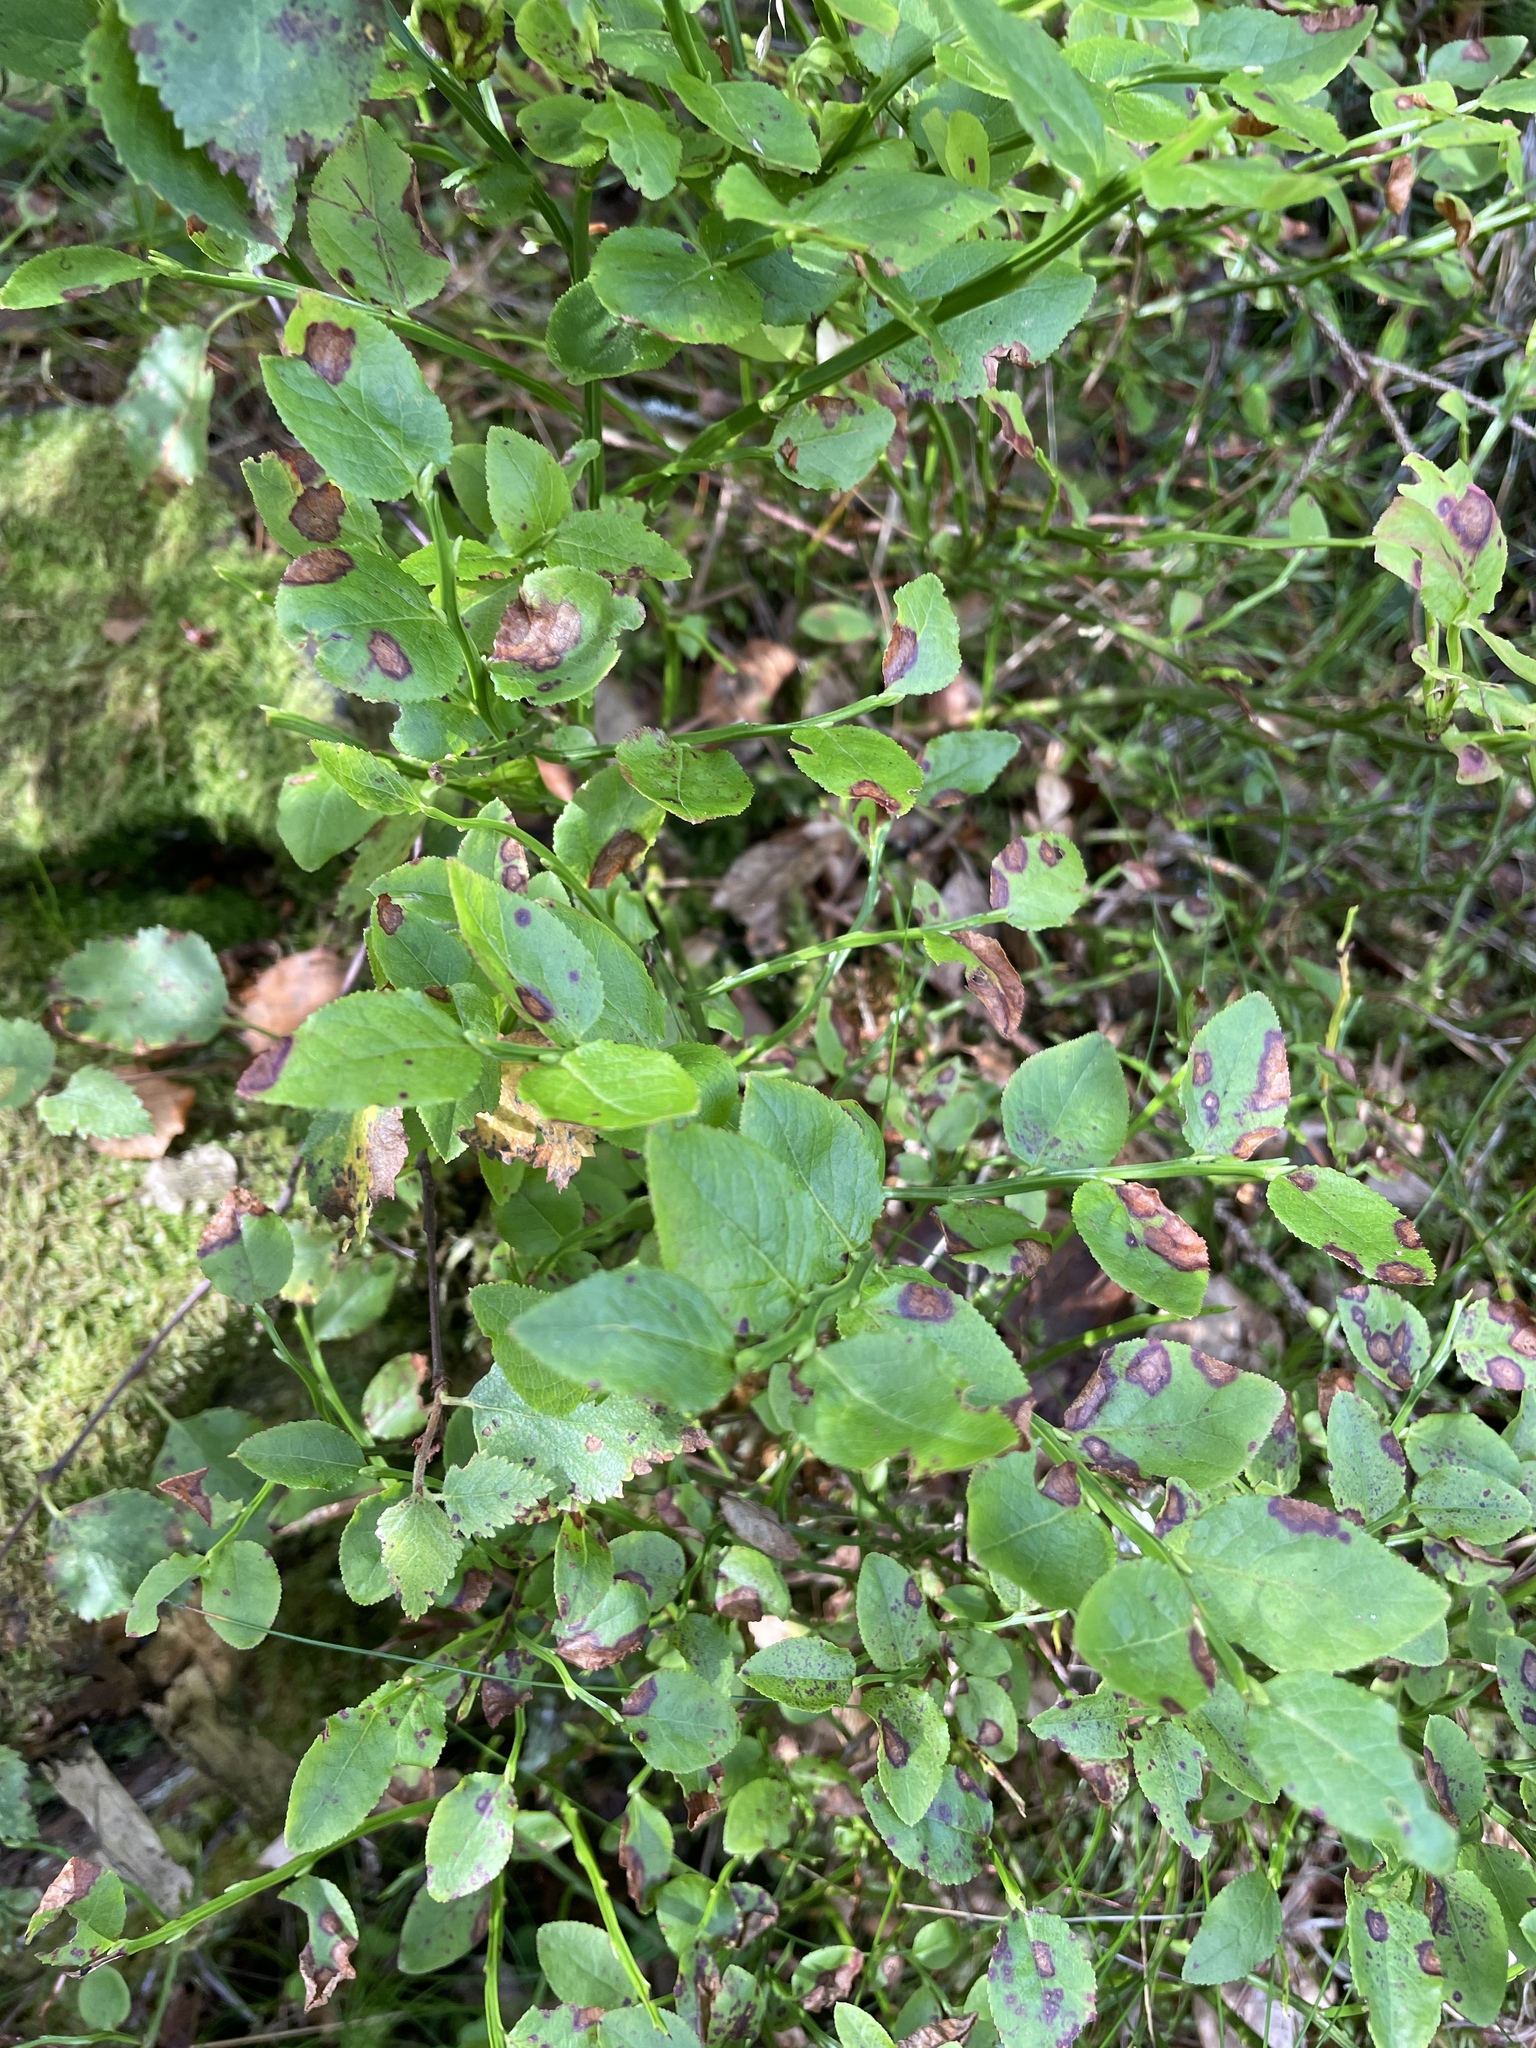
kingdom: Plantae
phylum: Tracheophyta
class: Magnoliopsida
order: Ericales
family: Ericaceae
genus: Vaccinium
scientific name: Vaccinium myrtillus
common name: Bilberry
